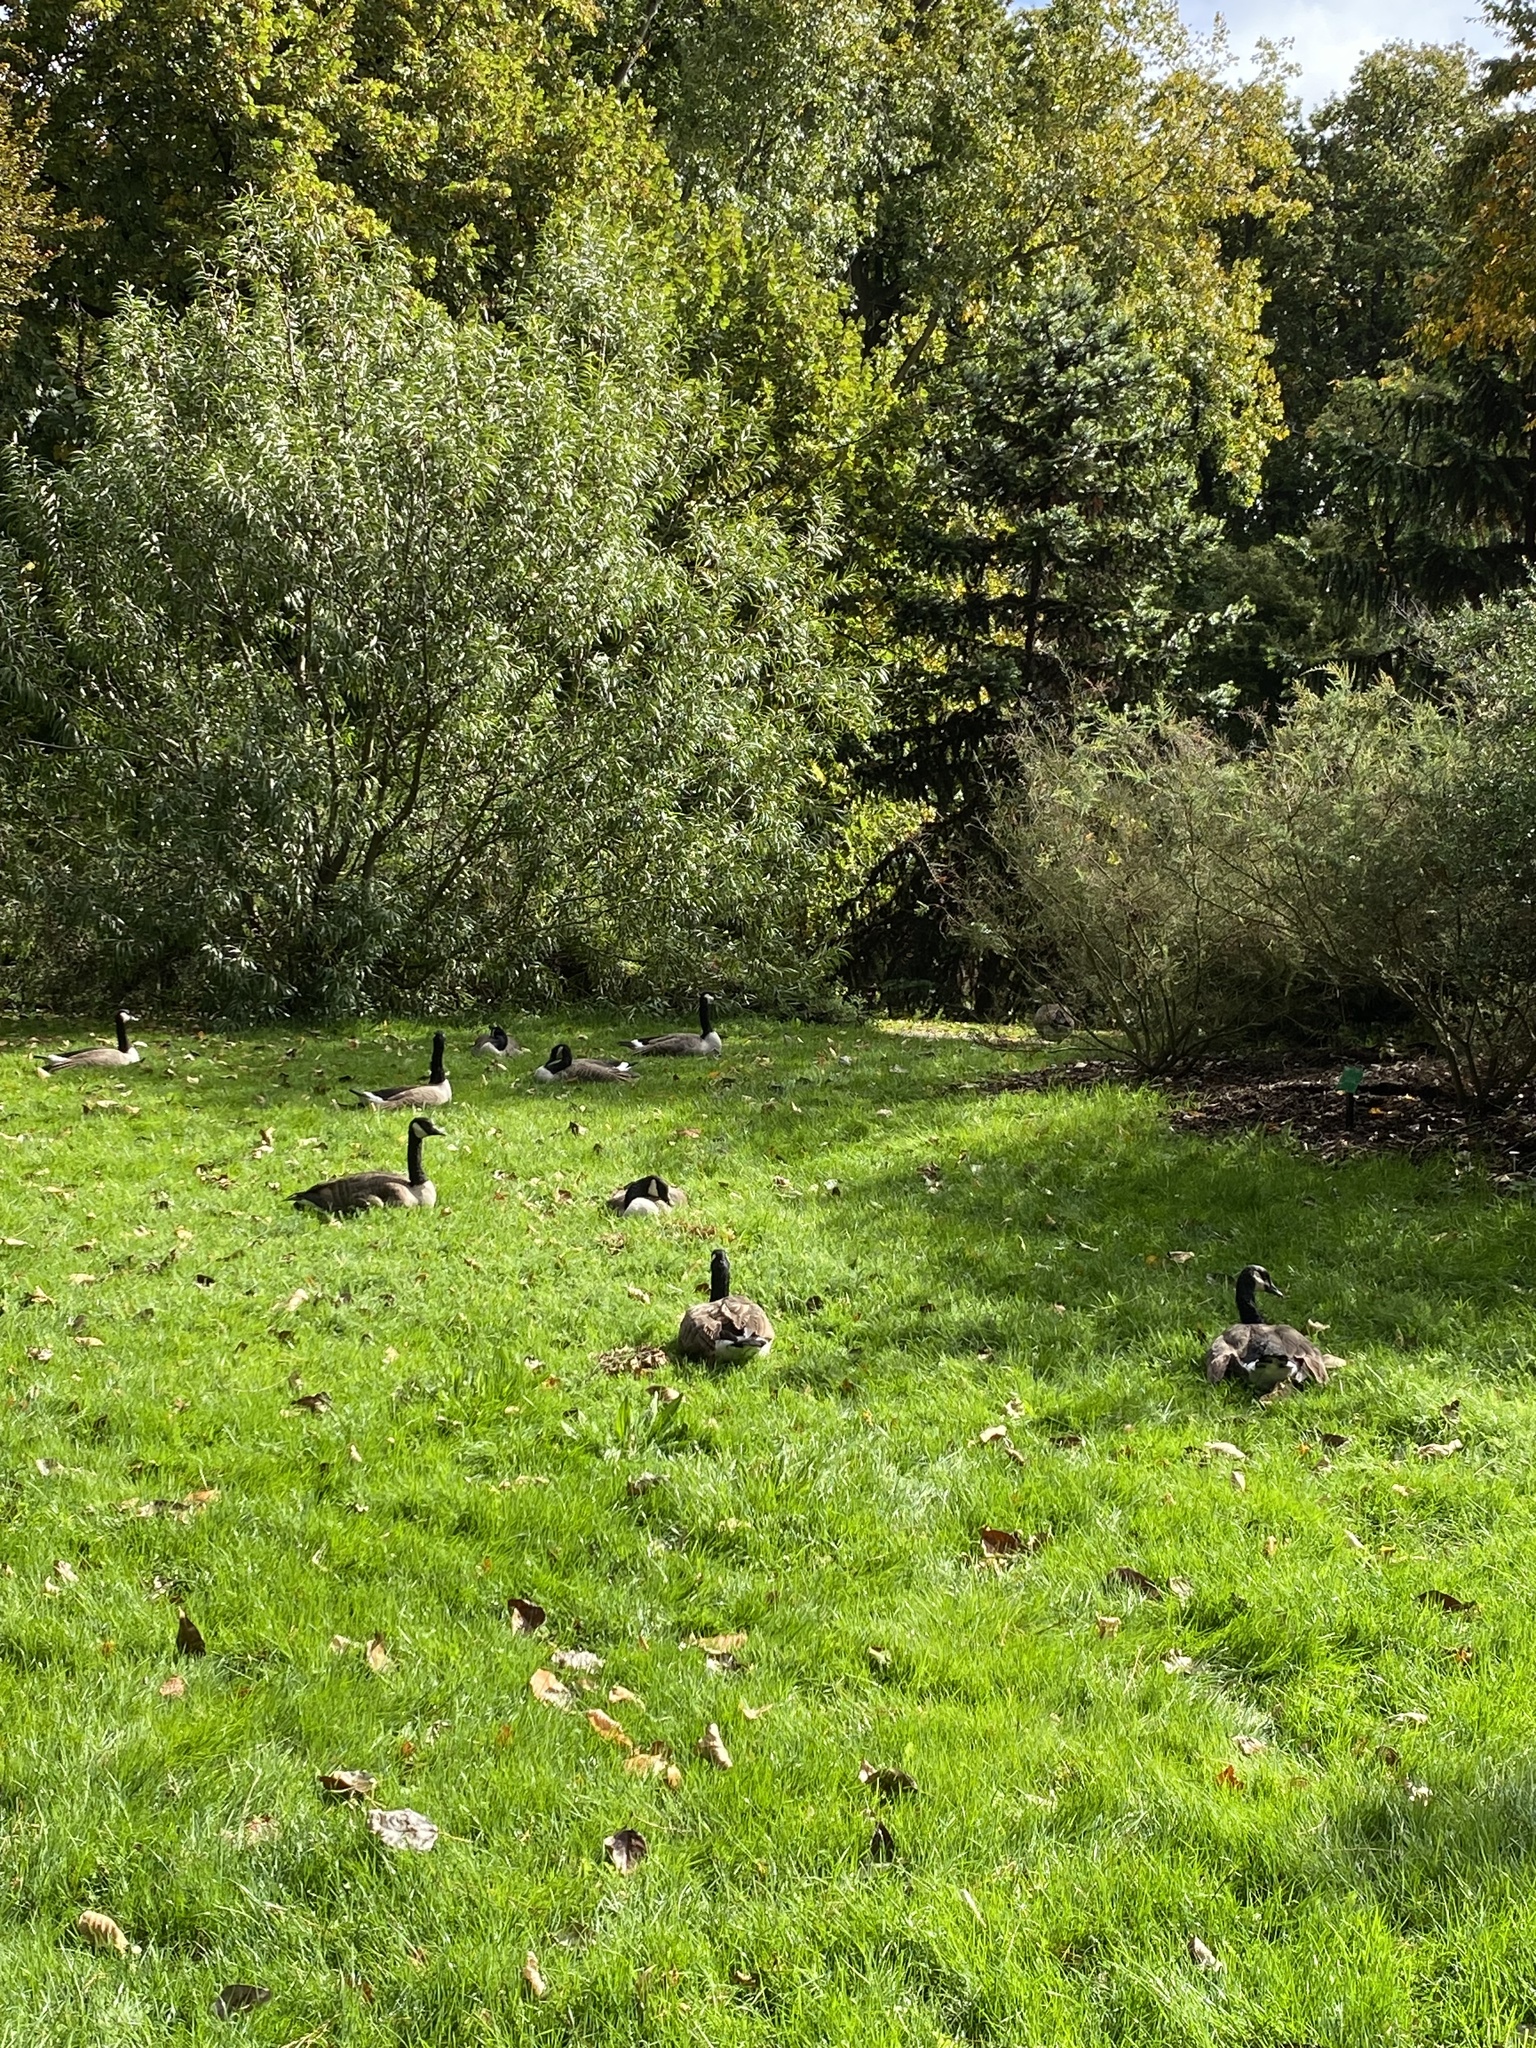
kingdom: Animalia
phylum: Chordata
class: Aves
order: Anseriformes
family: Anatidae
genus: Branta
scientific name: Branta canadensis
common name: Canada goose
